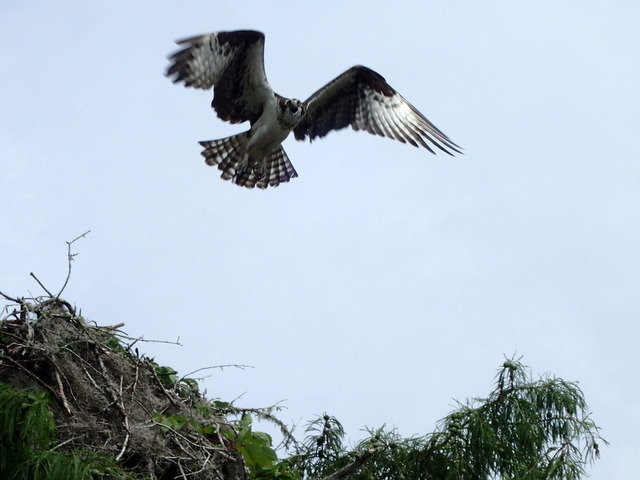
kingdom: Animalia
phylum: Chordata
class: Aves
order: Accipitriformes
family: Pandionidae
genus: Pandion
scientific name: Pandion haliaetus
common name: Osprey
